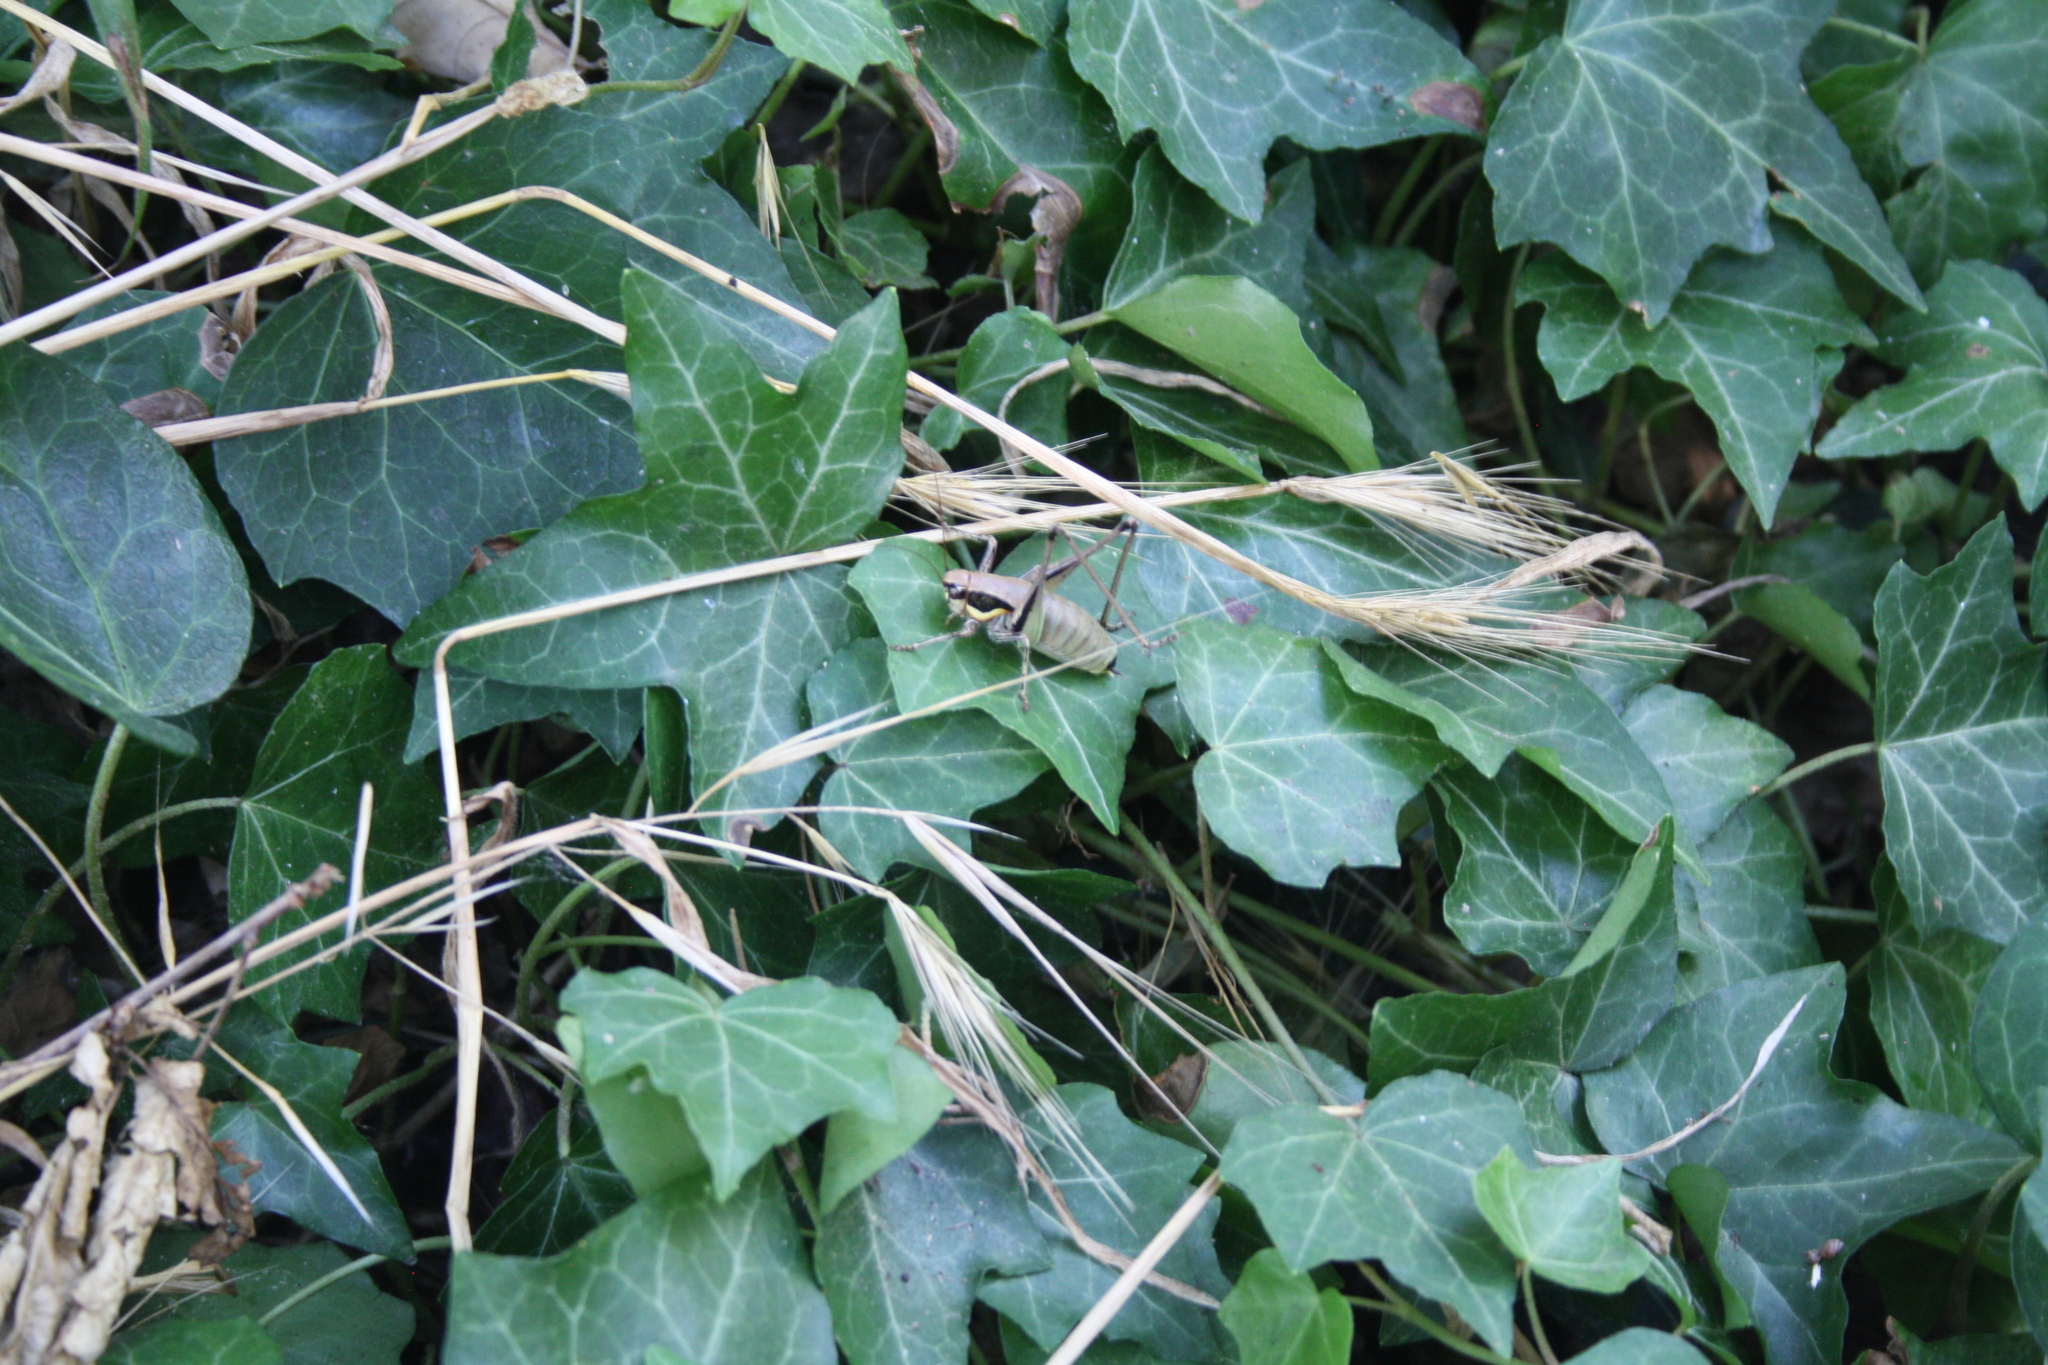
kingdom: Animalia
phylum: Arthropoda
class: Insecta
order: Orthoptera
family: Tettigoniidae
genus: Eupholidoptera
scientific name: Eupholidoptera smyrnensis
